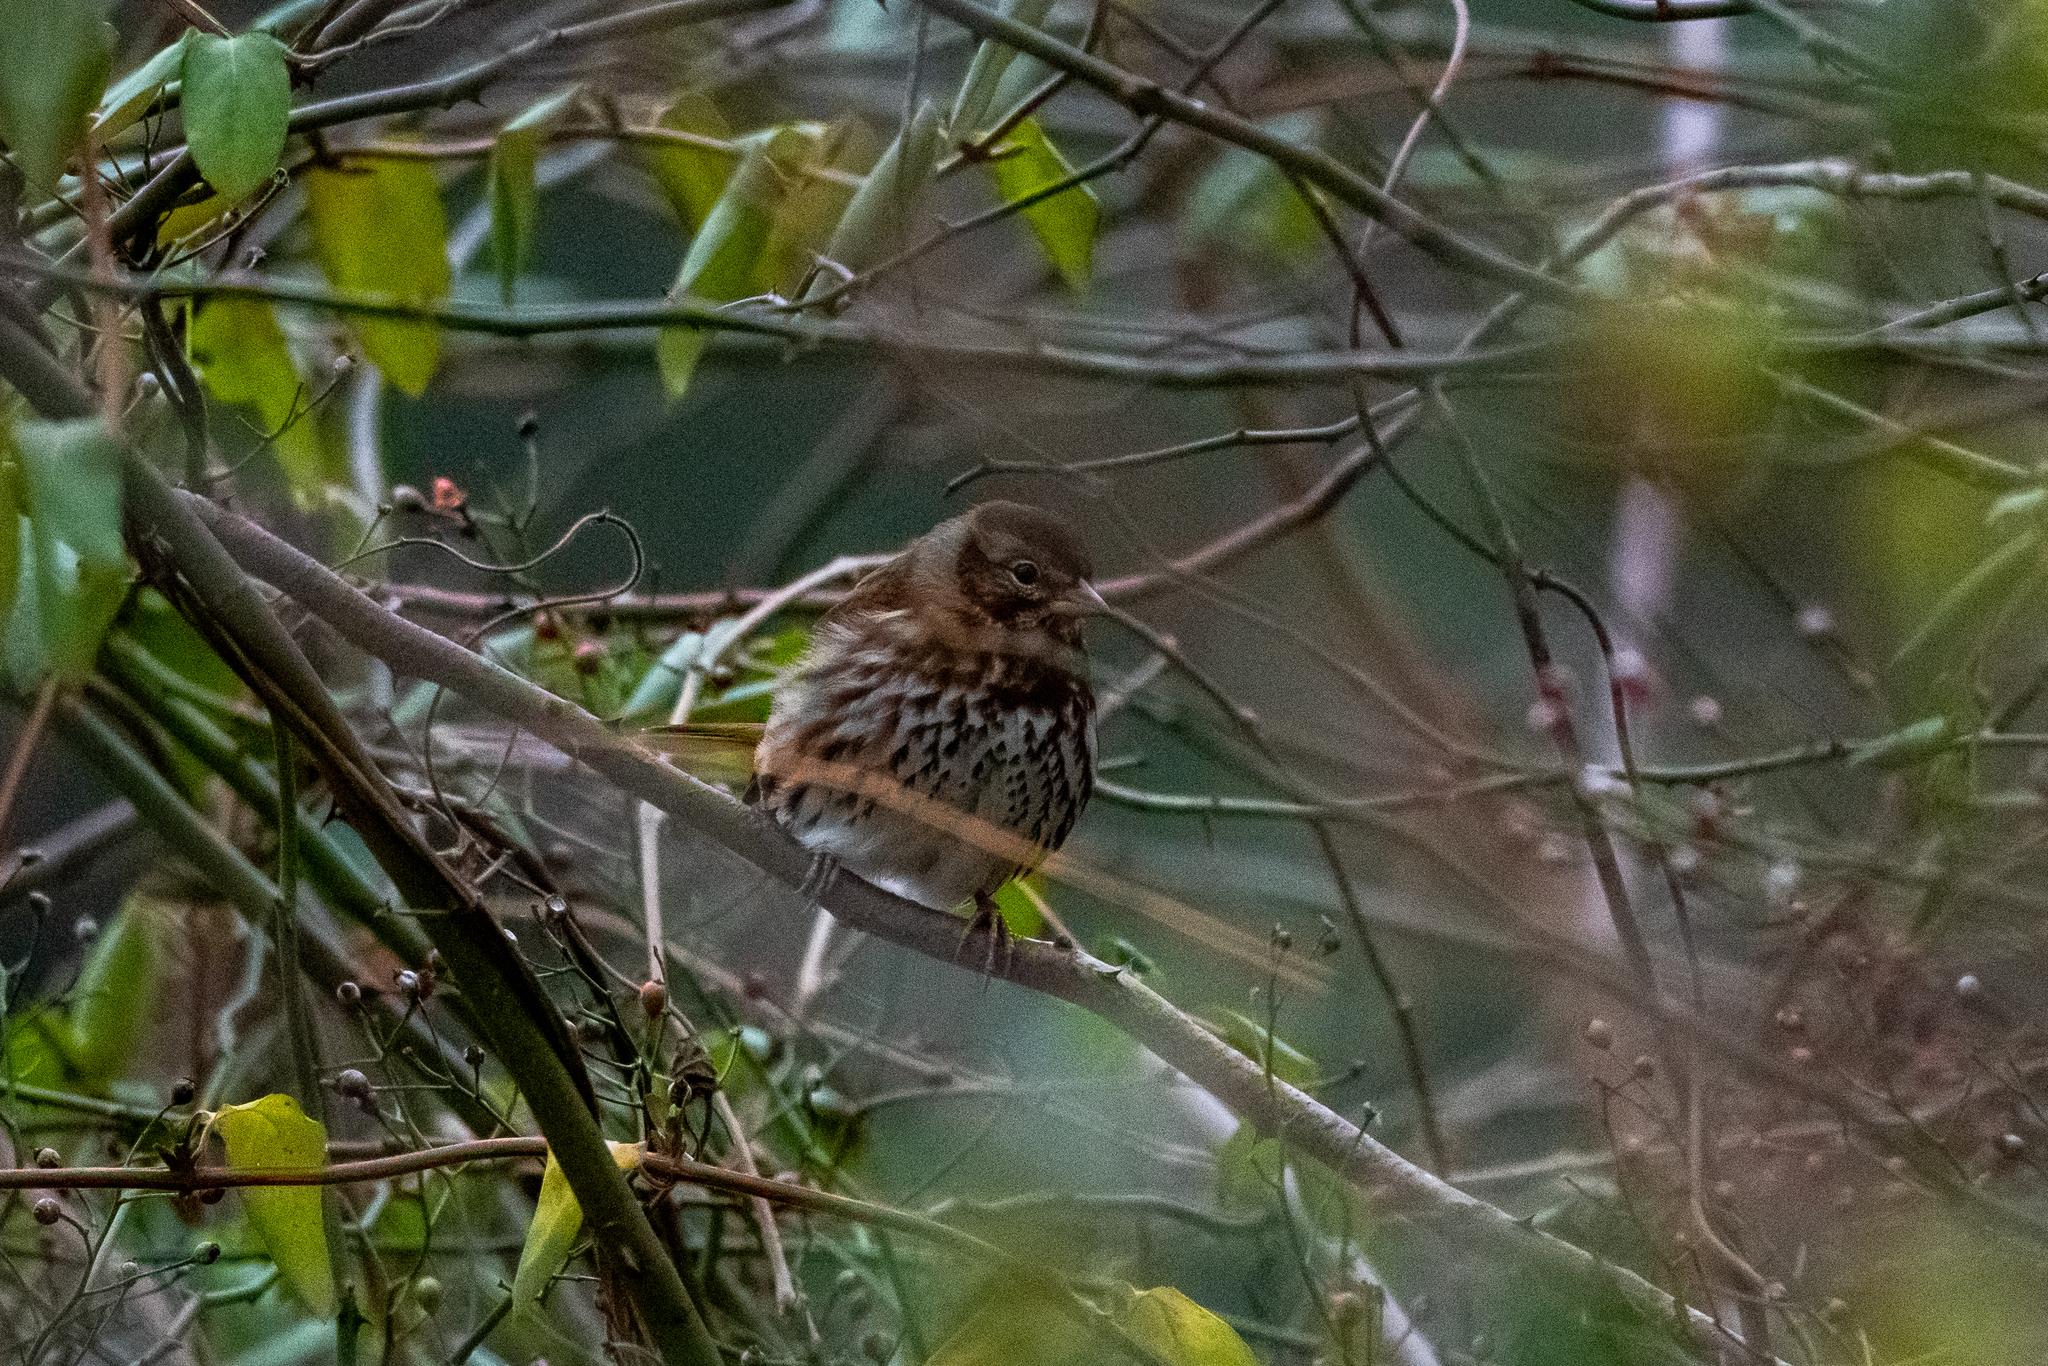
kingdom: Animalia
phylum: Chordata
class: Aves
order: Passeriformes
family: Passerellidae
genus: Passerella
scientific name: Passerella iliaca
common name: Fox sparrow
